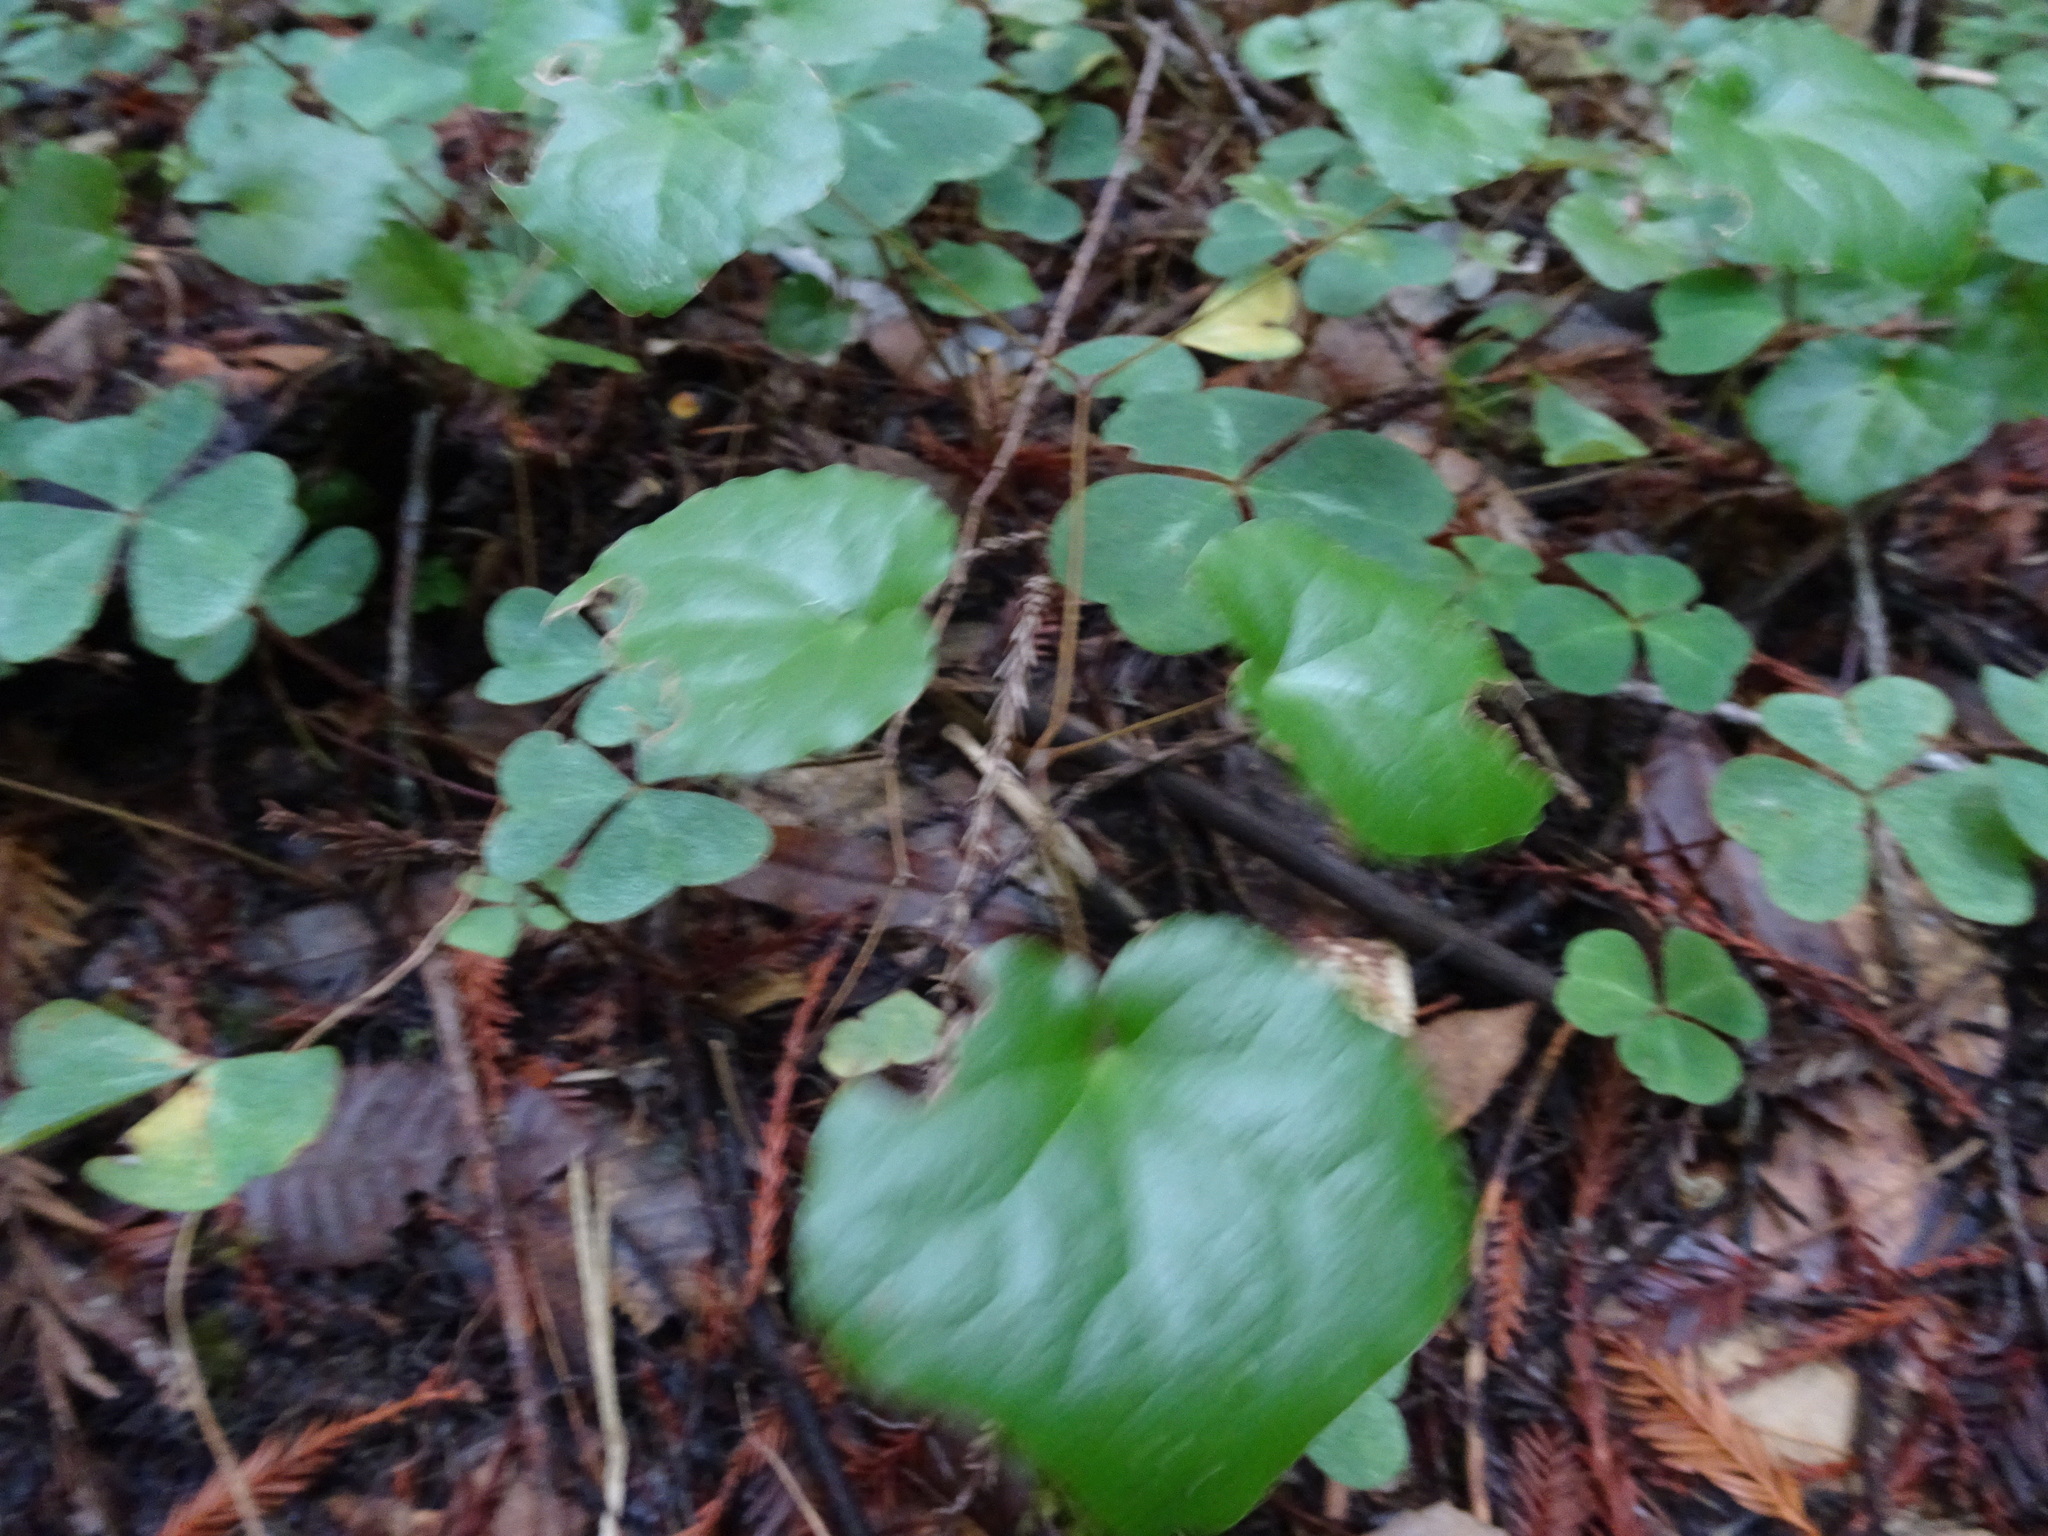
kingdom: Plantae
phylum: Tracheophyta
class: Magnoliopsida
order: Ranunculales
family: Berberidaceae
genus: Vancouveria
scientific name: Vancouveria planipetala
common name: Redwood-ivy
